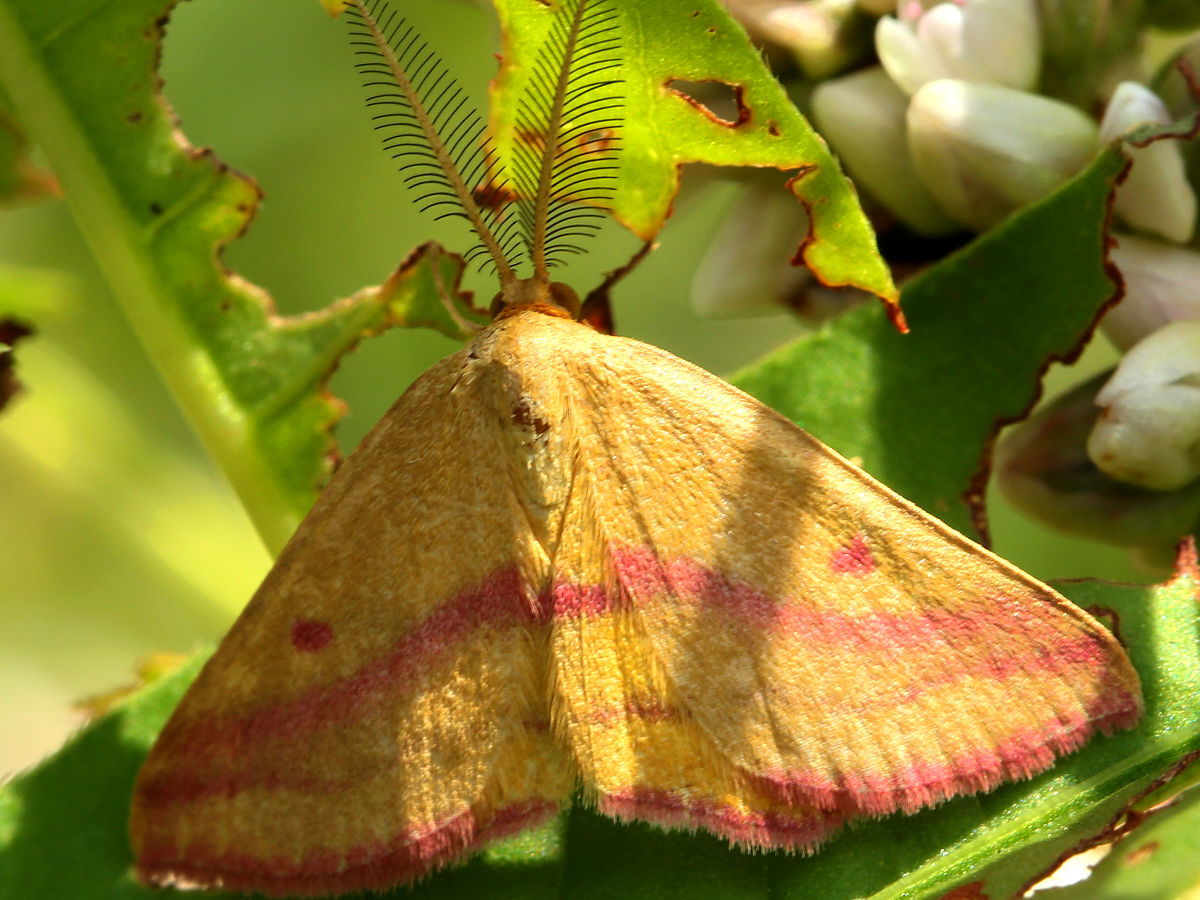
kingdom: Animalia
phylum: Arthropoda
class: Insecta
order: Lepidoptera
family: Geometridae
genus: Haematopis
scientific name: Haematopis grataria
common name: Chickweed geometer
